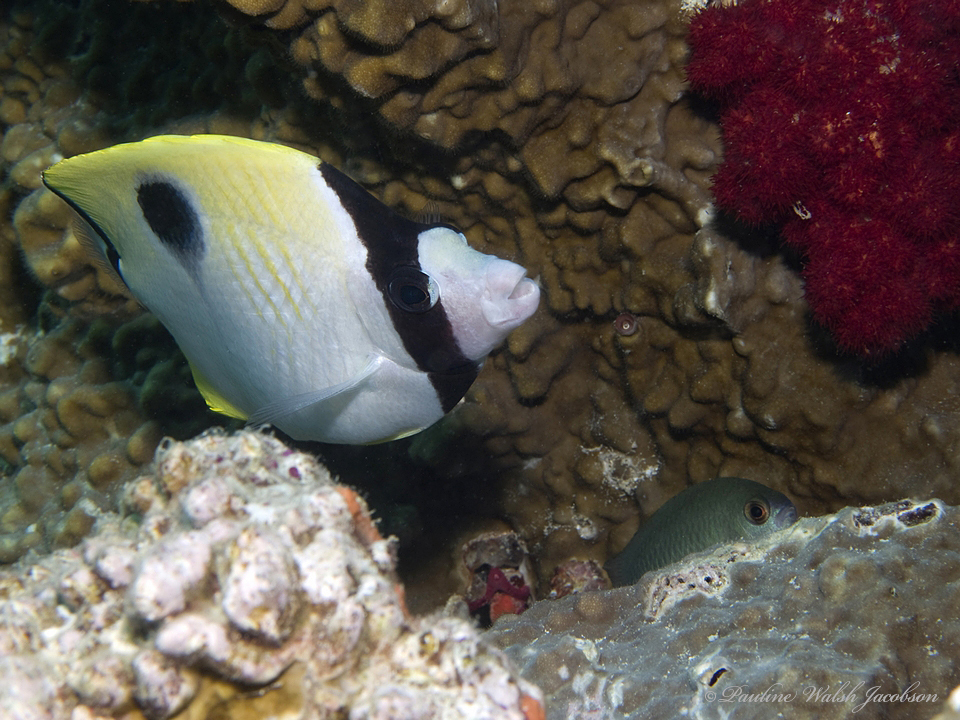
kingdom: Animalia
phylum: Chordata
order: Perciformes
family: Chaetodontidae
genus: Chaetodon
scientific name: Chaetodon unimaculatus
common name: Teardrop butterflyfish
